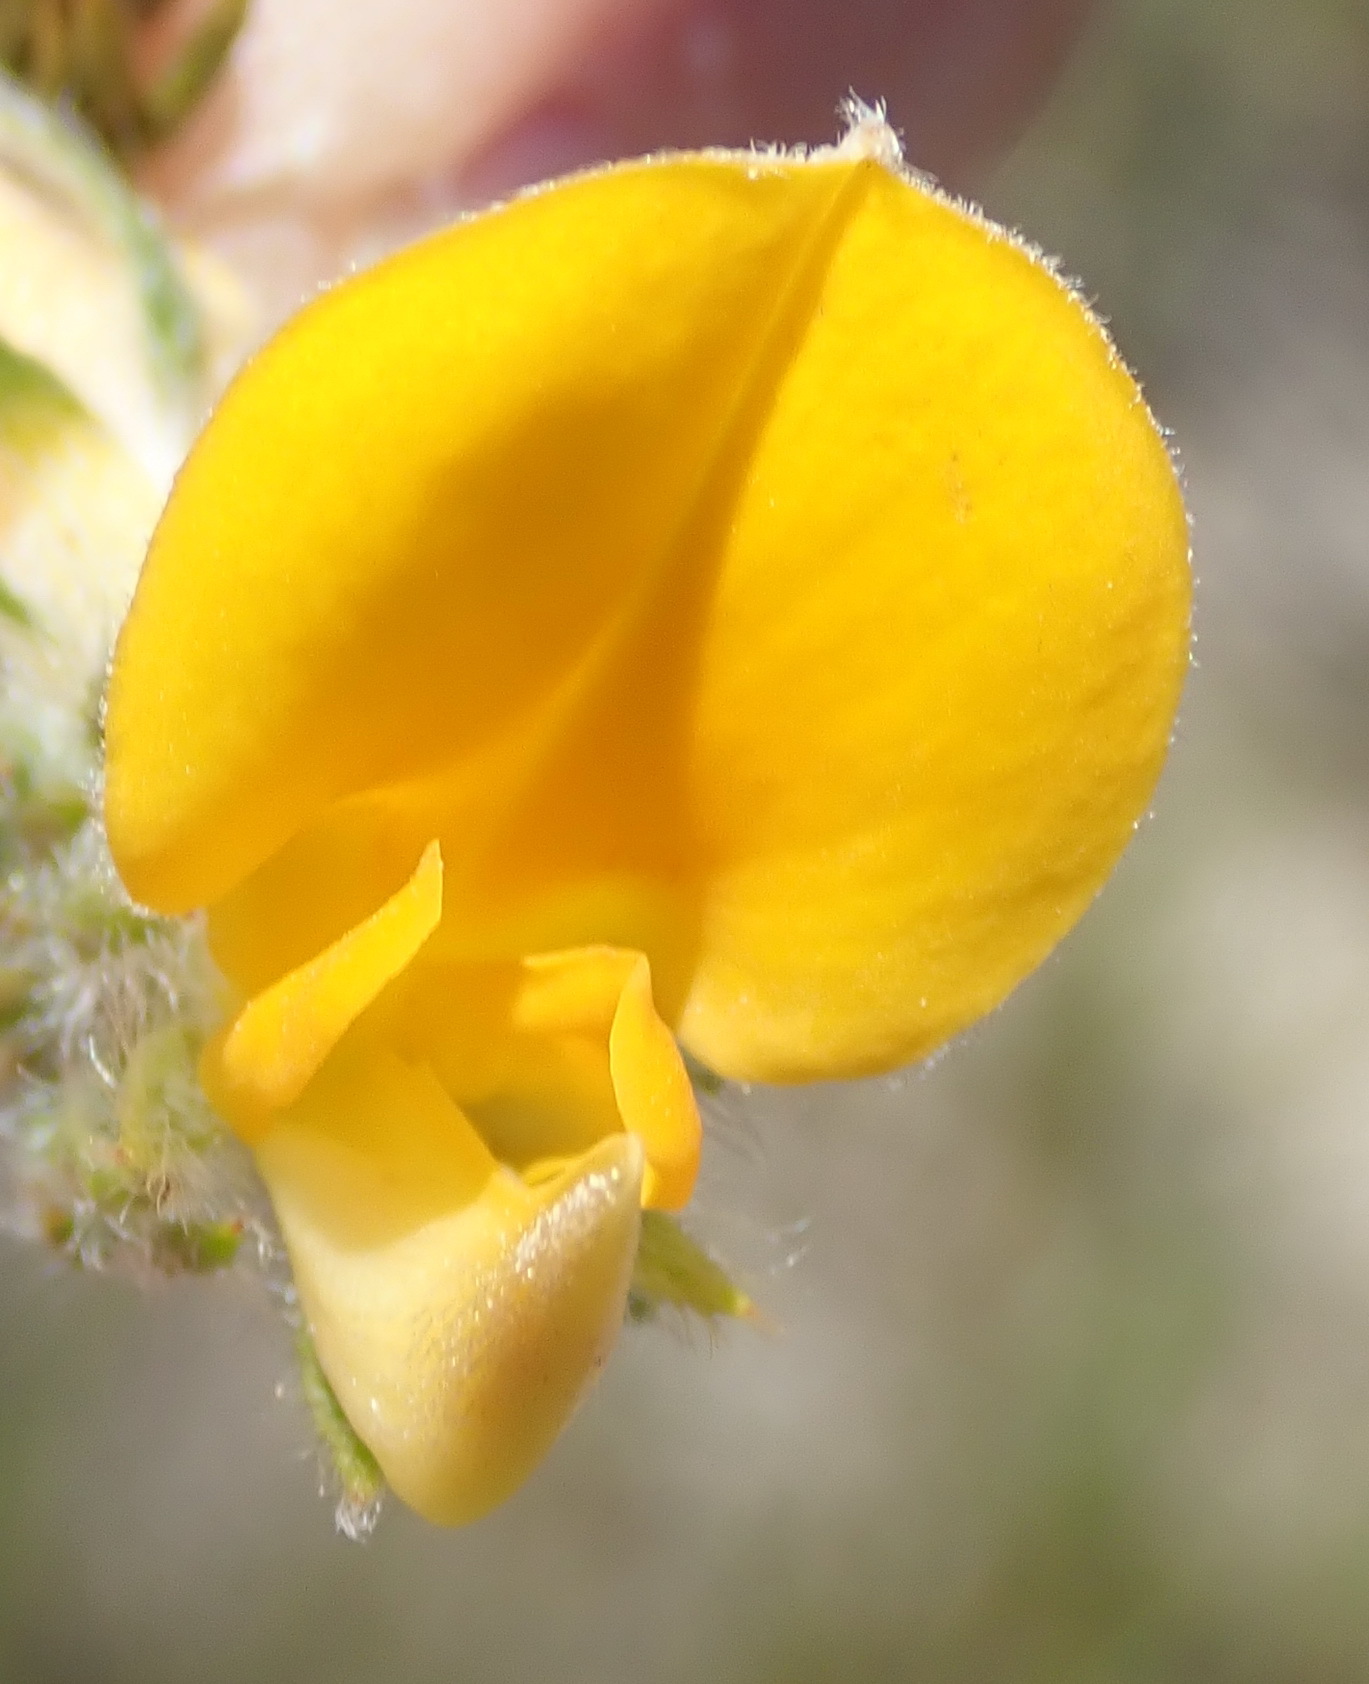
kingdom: Plantae
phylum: Tracheophyta
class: Magnoliopsida
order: Fabales
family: Fabaceae
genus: Aspalathus
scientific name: Aspalathus asparagoides
